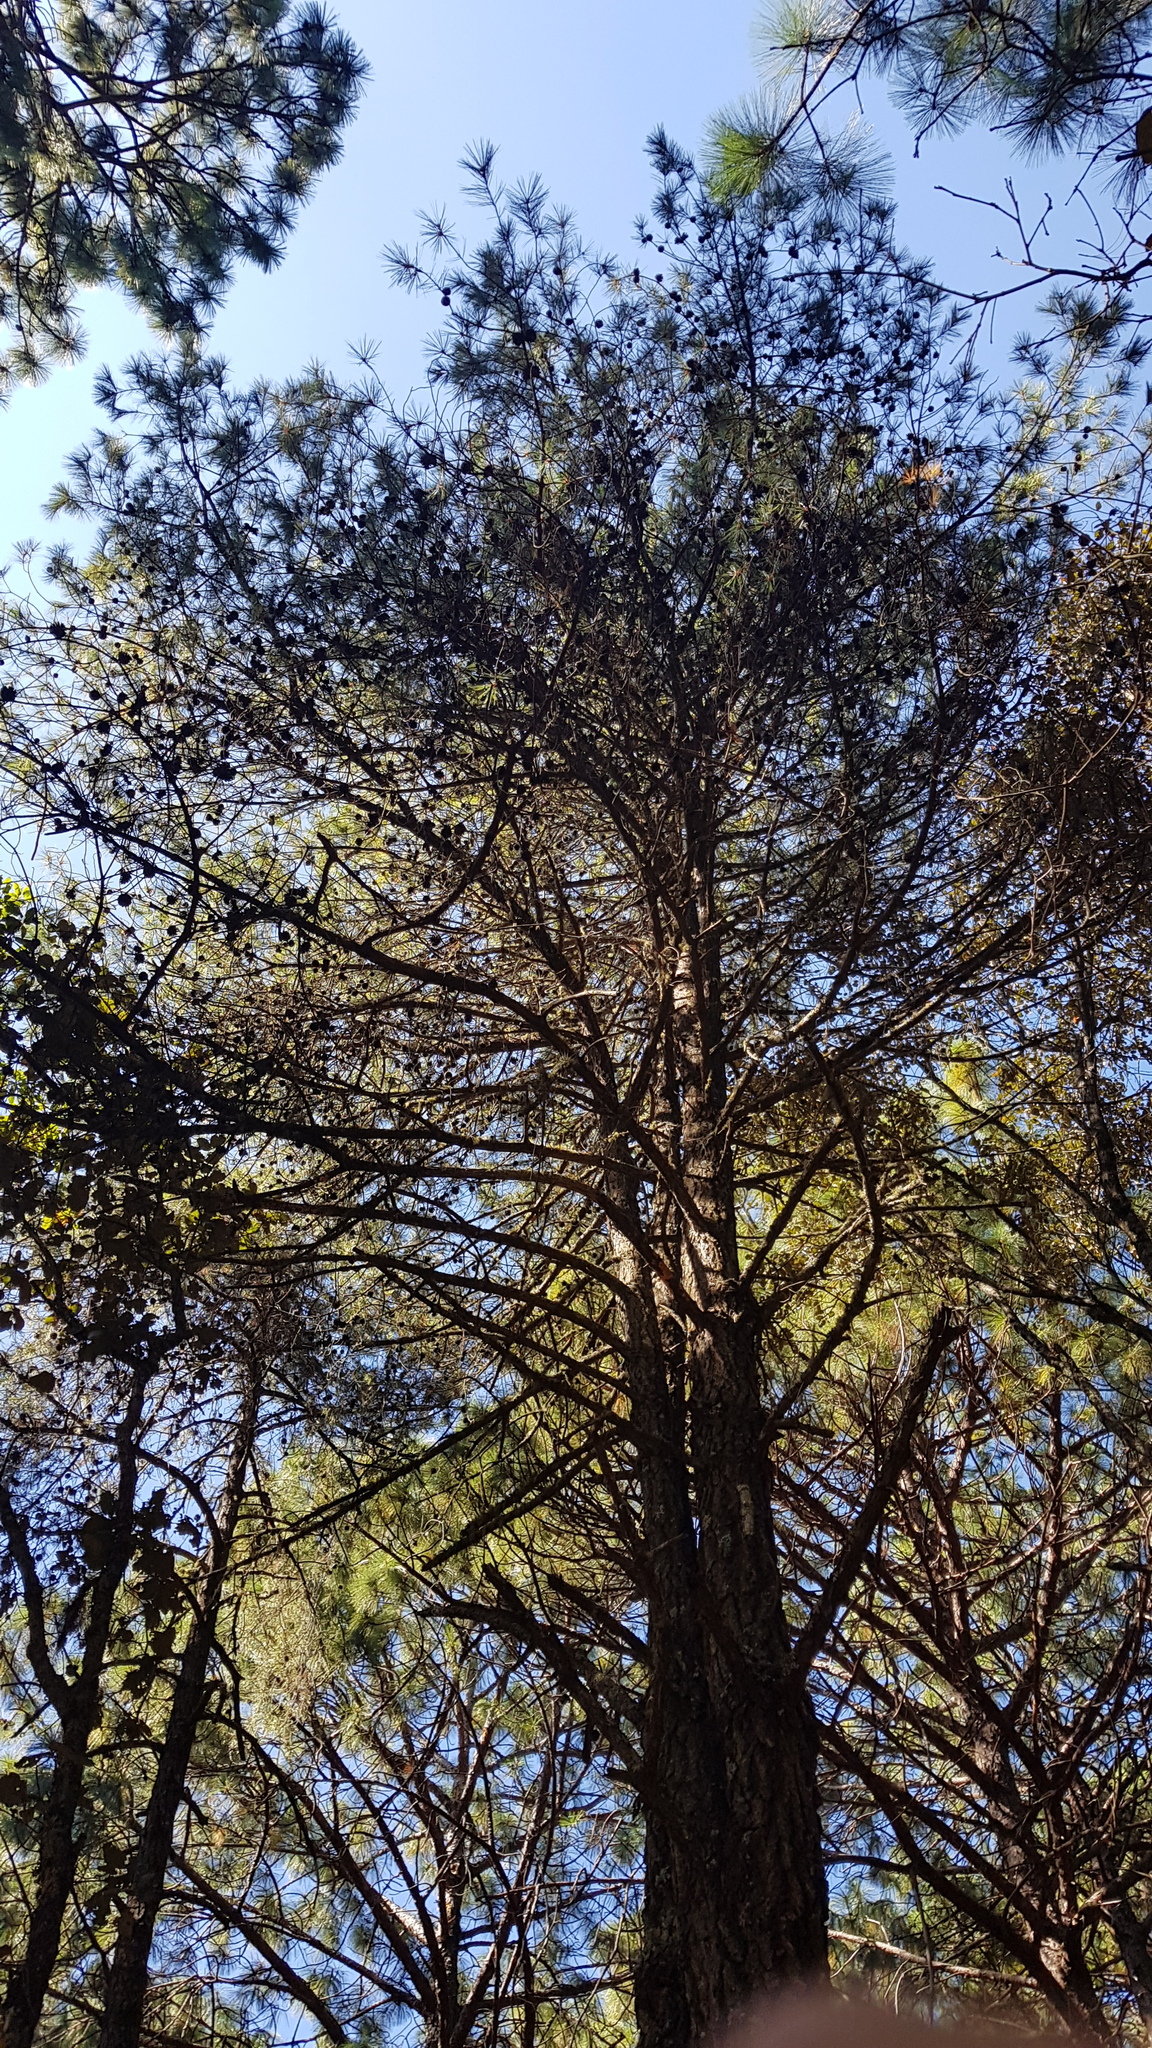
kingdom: Plantae
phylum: Tracheophyta
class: Pinopsida
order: Pinales
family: Pinaceae
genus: Pinus
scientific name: Pinus leiophylla
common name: Chihuahua pine
